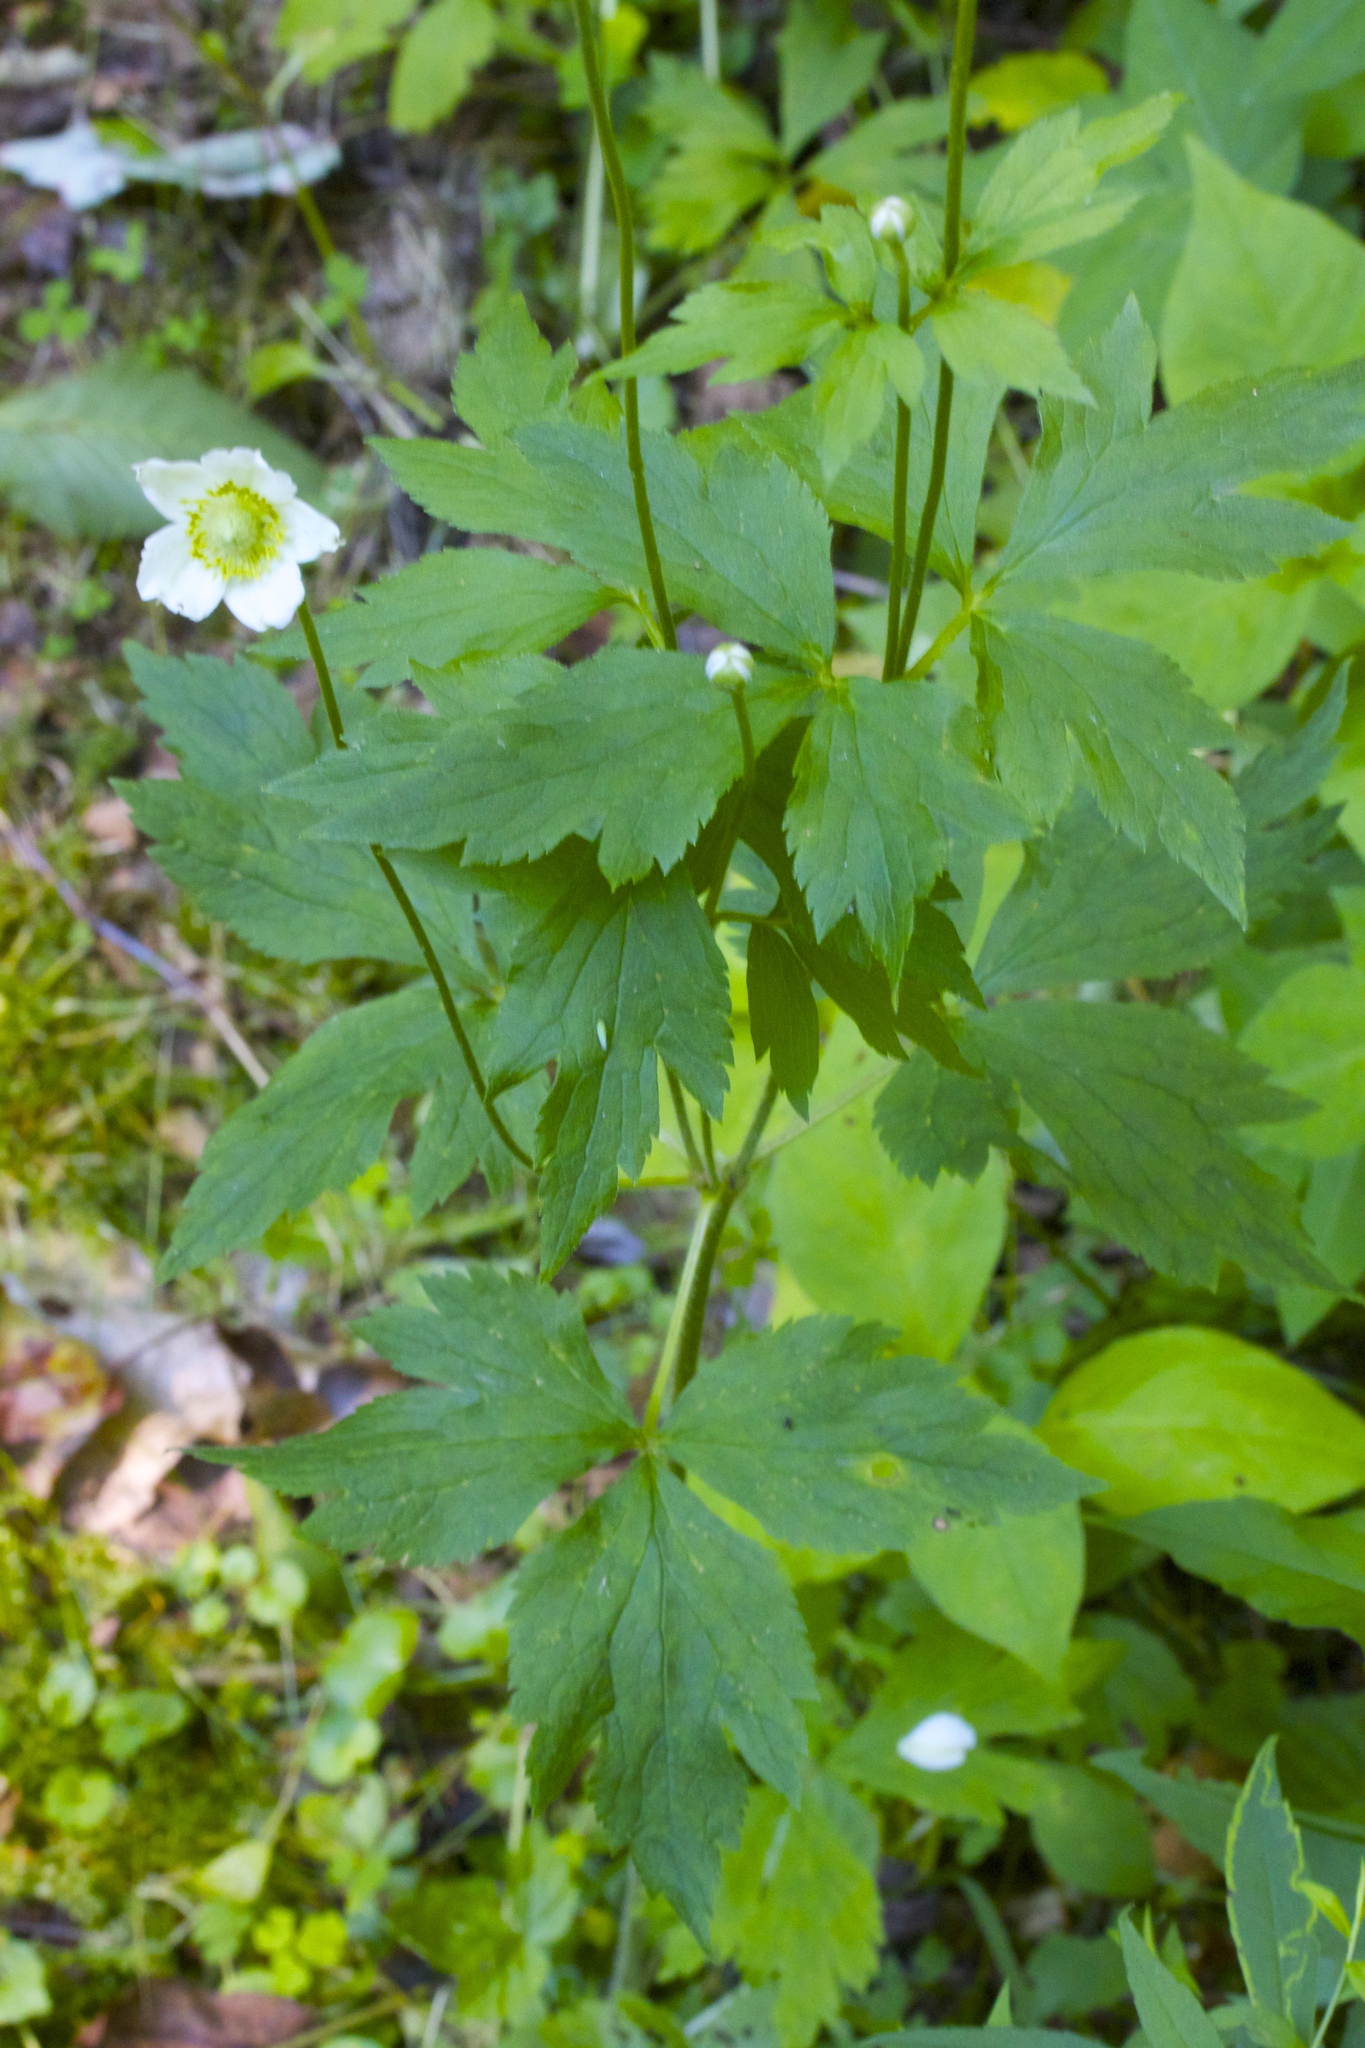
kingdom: Plantae
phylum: Tracheophyta
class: Magnoliopsida
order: Ranunculales
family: Ranunculaceae
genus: Anemone
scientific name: Anemone virginiana
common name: Tall anemone
